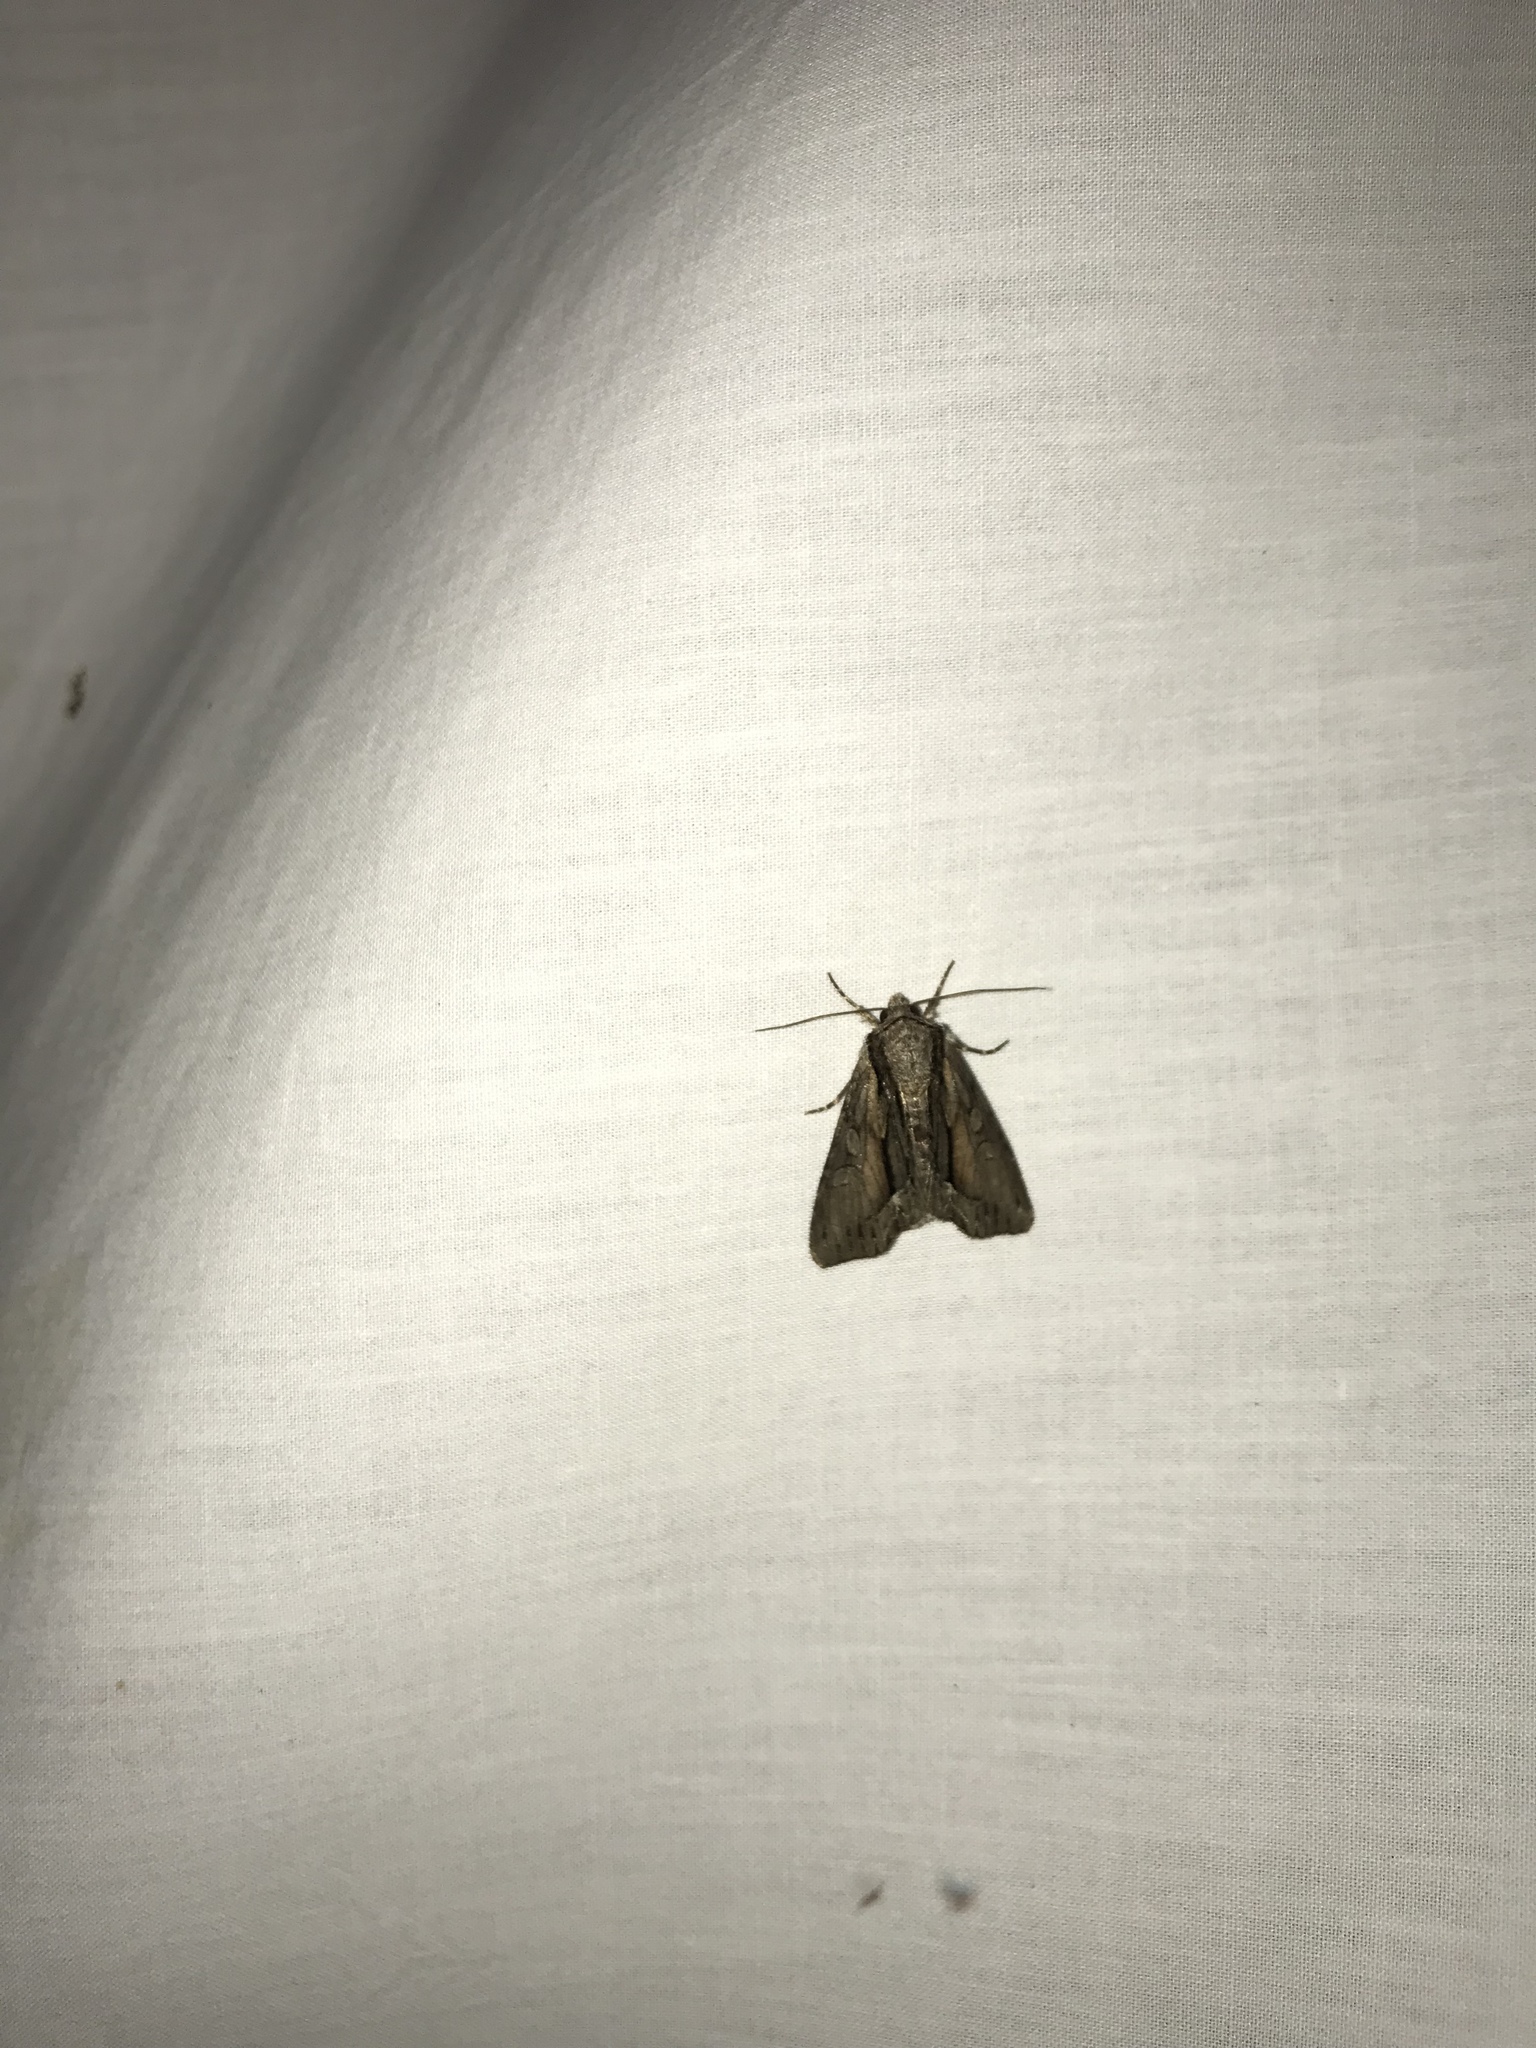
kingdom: Animalia
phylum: Arthropoda
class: Insecta
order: Lepidoptera
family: Noctuidae
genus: Hyppa
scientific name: Hyppa xylinoides
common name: Common hyppa moth
